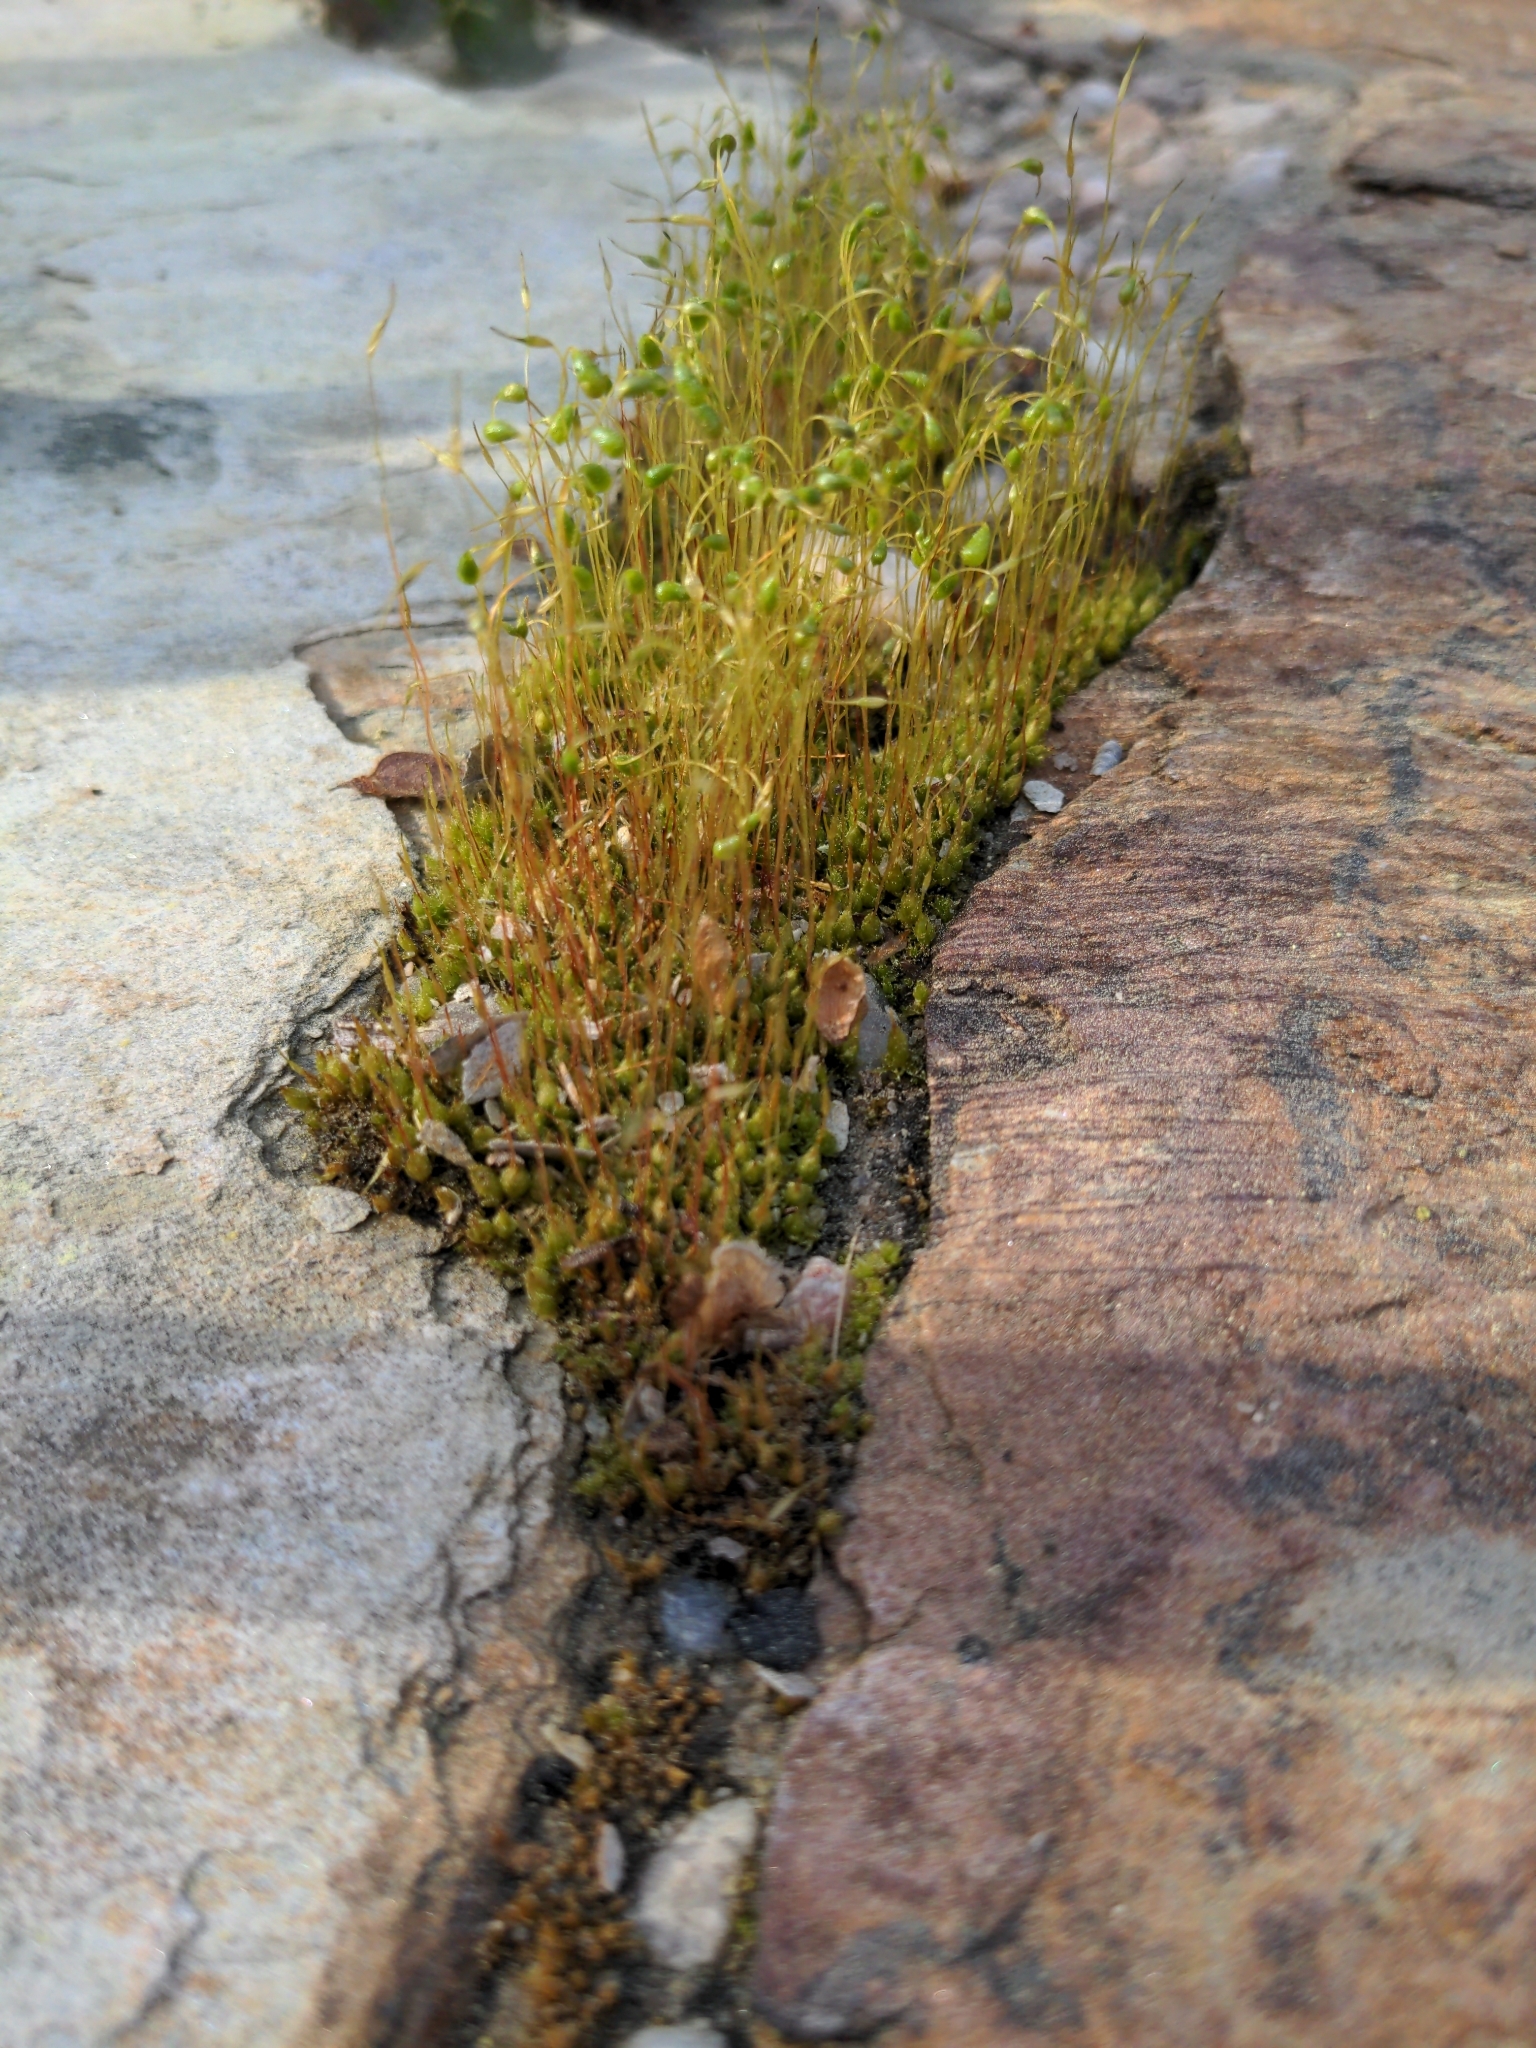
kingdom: Plantae
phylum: Bryophyta
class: Bryopsida
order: Funariales
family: Funariaceae
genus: Funaria
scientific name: Funaria hygrometrica
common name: Common cord moss
